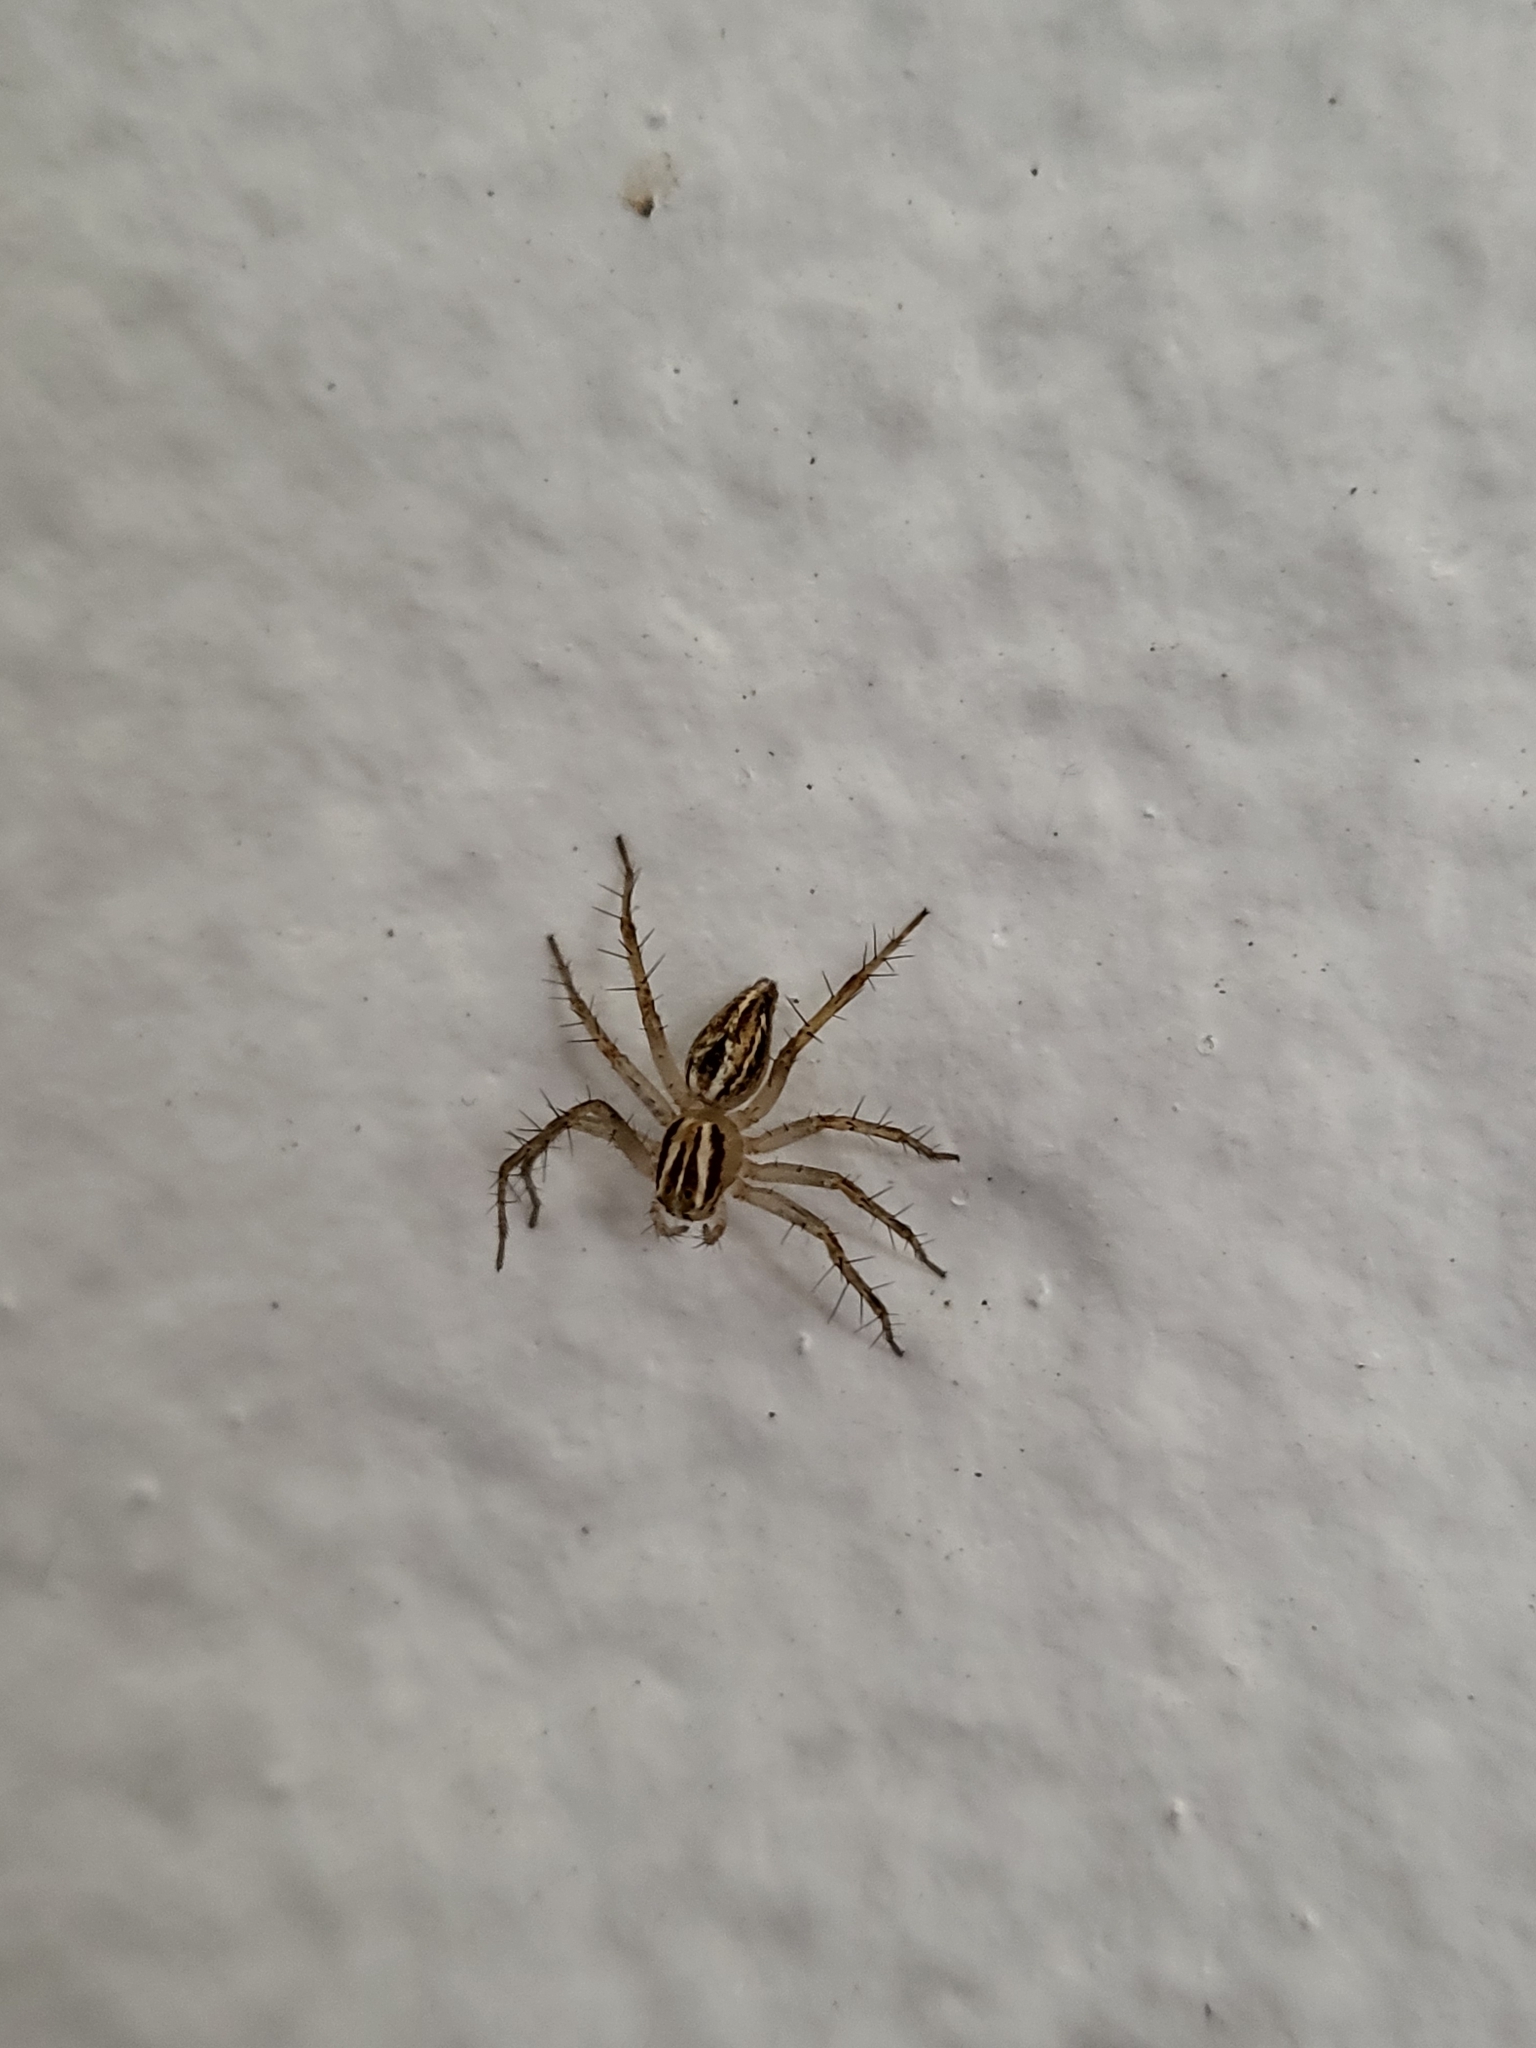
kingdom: Animalia
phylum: Arthropoda
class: Arachnida
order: Araneae
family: Oxyopidae
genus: Oxyopes
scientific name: Oxyopes salticus
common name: Lynx spiders
